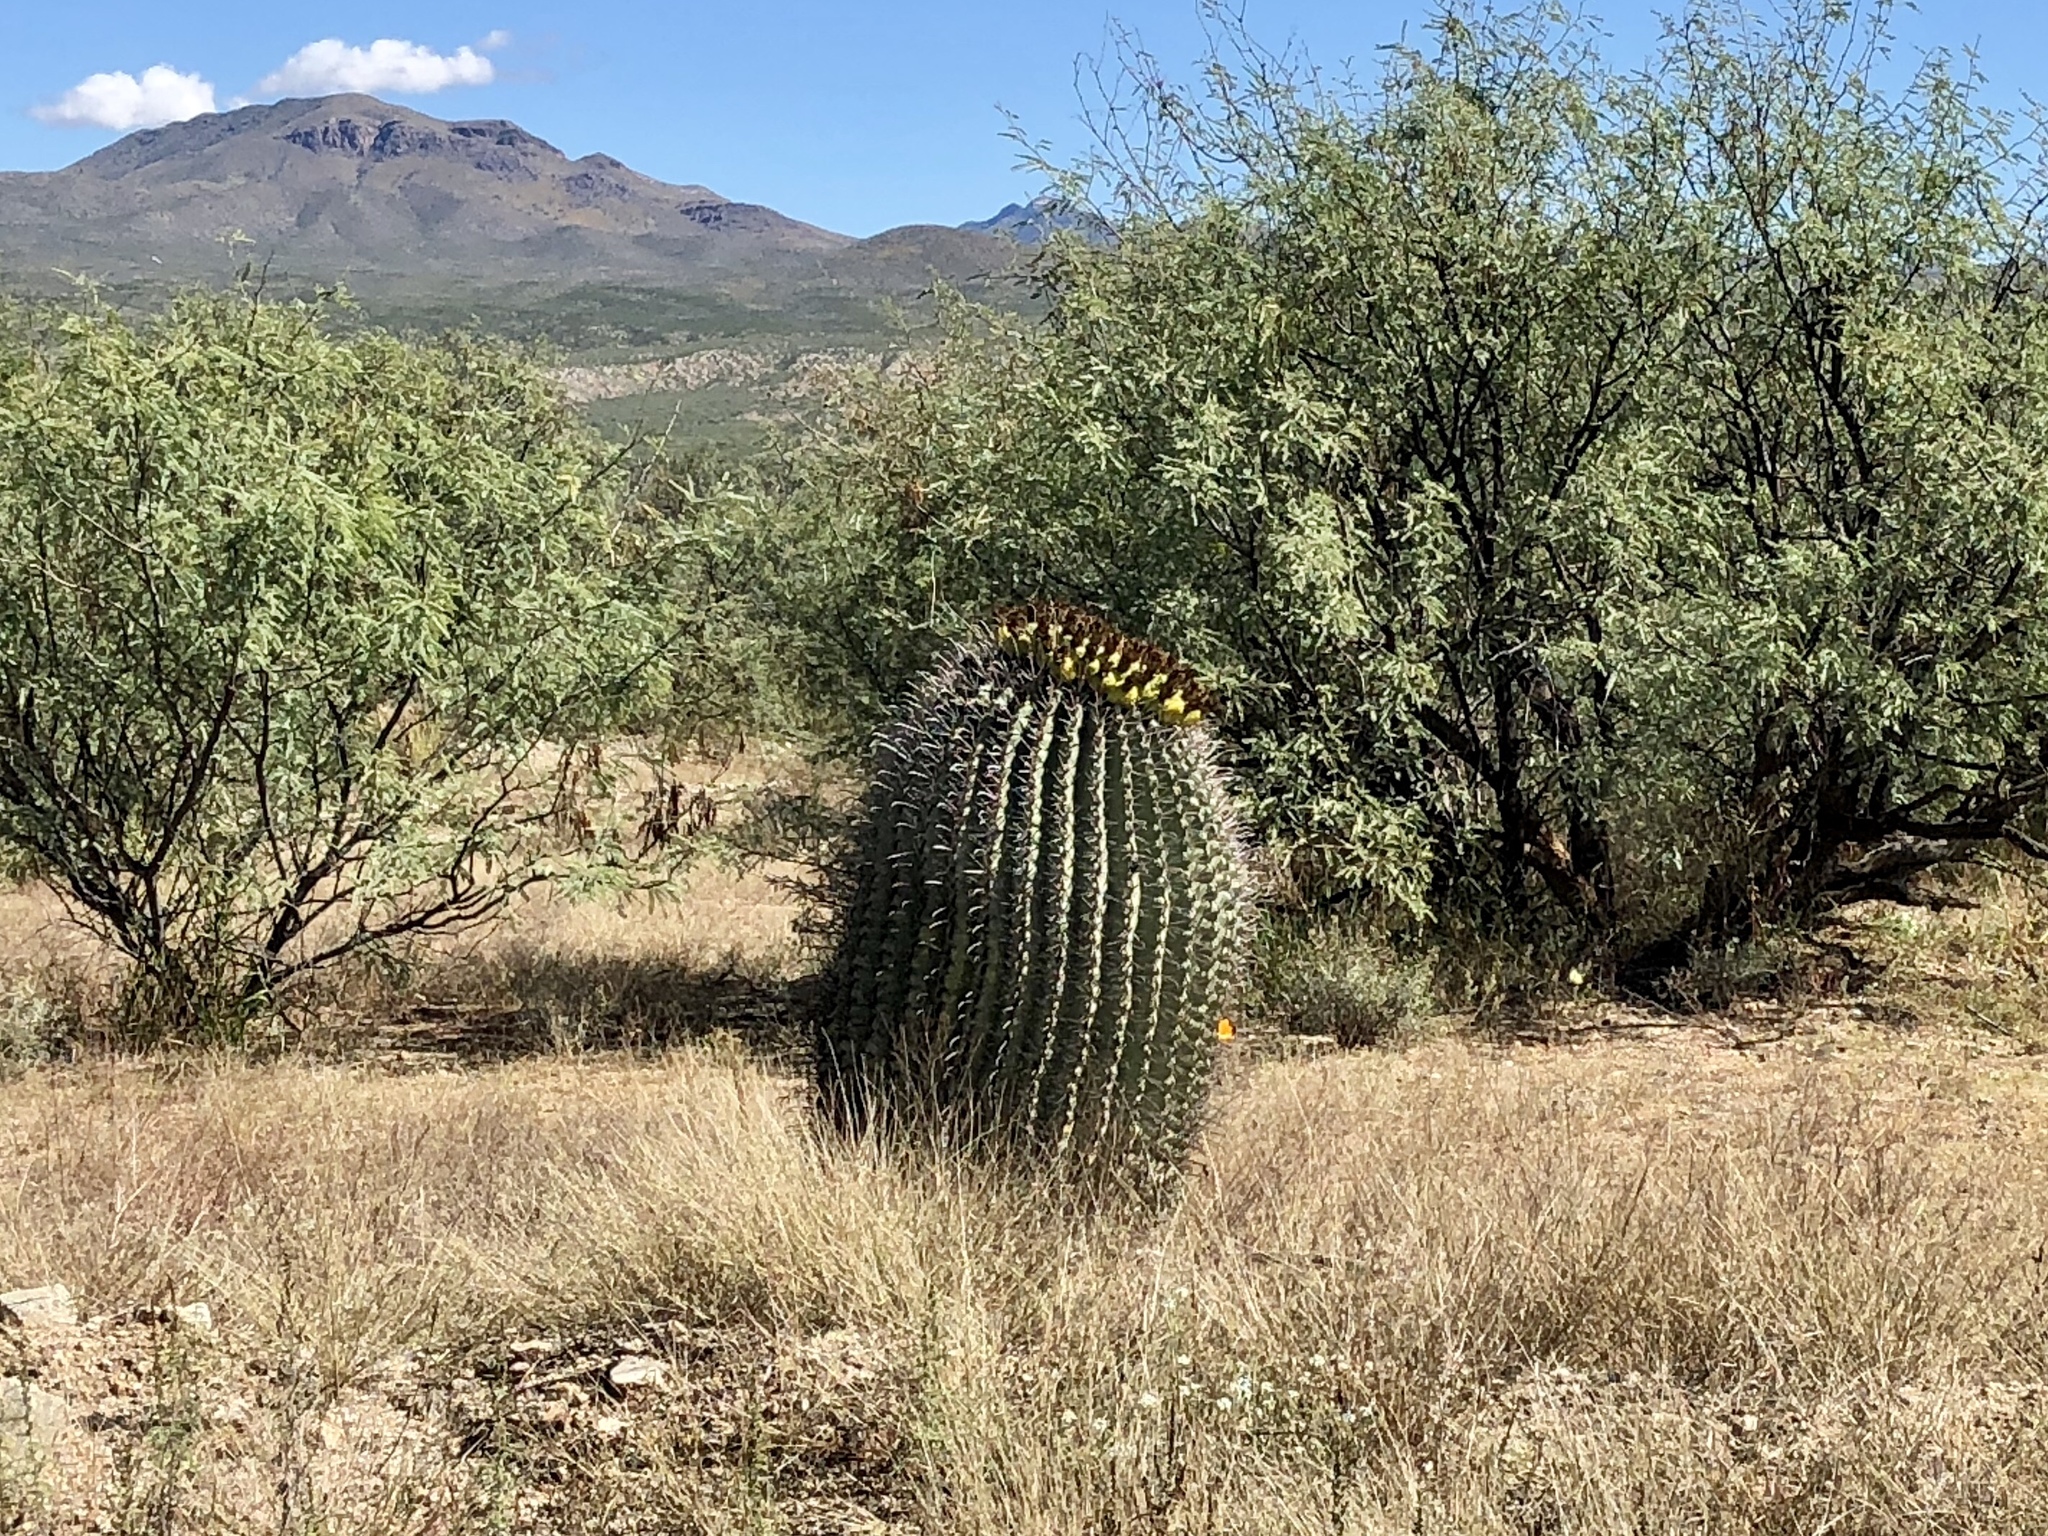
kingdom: Plantae
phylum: Tracheophyta
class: Magnoliopsida
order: Caryophyllales
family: Cactaceae
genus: Ferocactus
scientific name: Ferocactus wislizeni
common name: Candy barrel cactus
